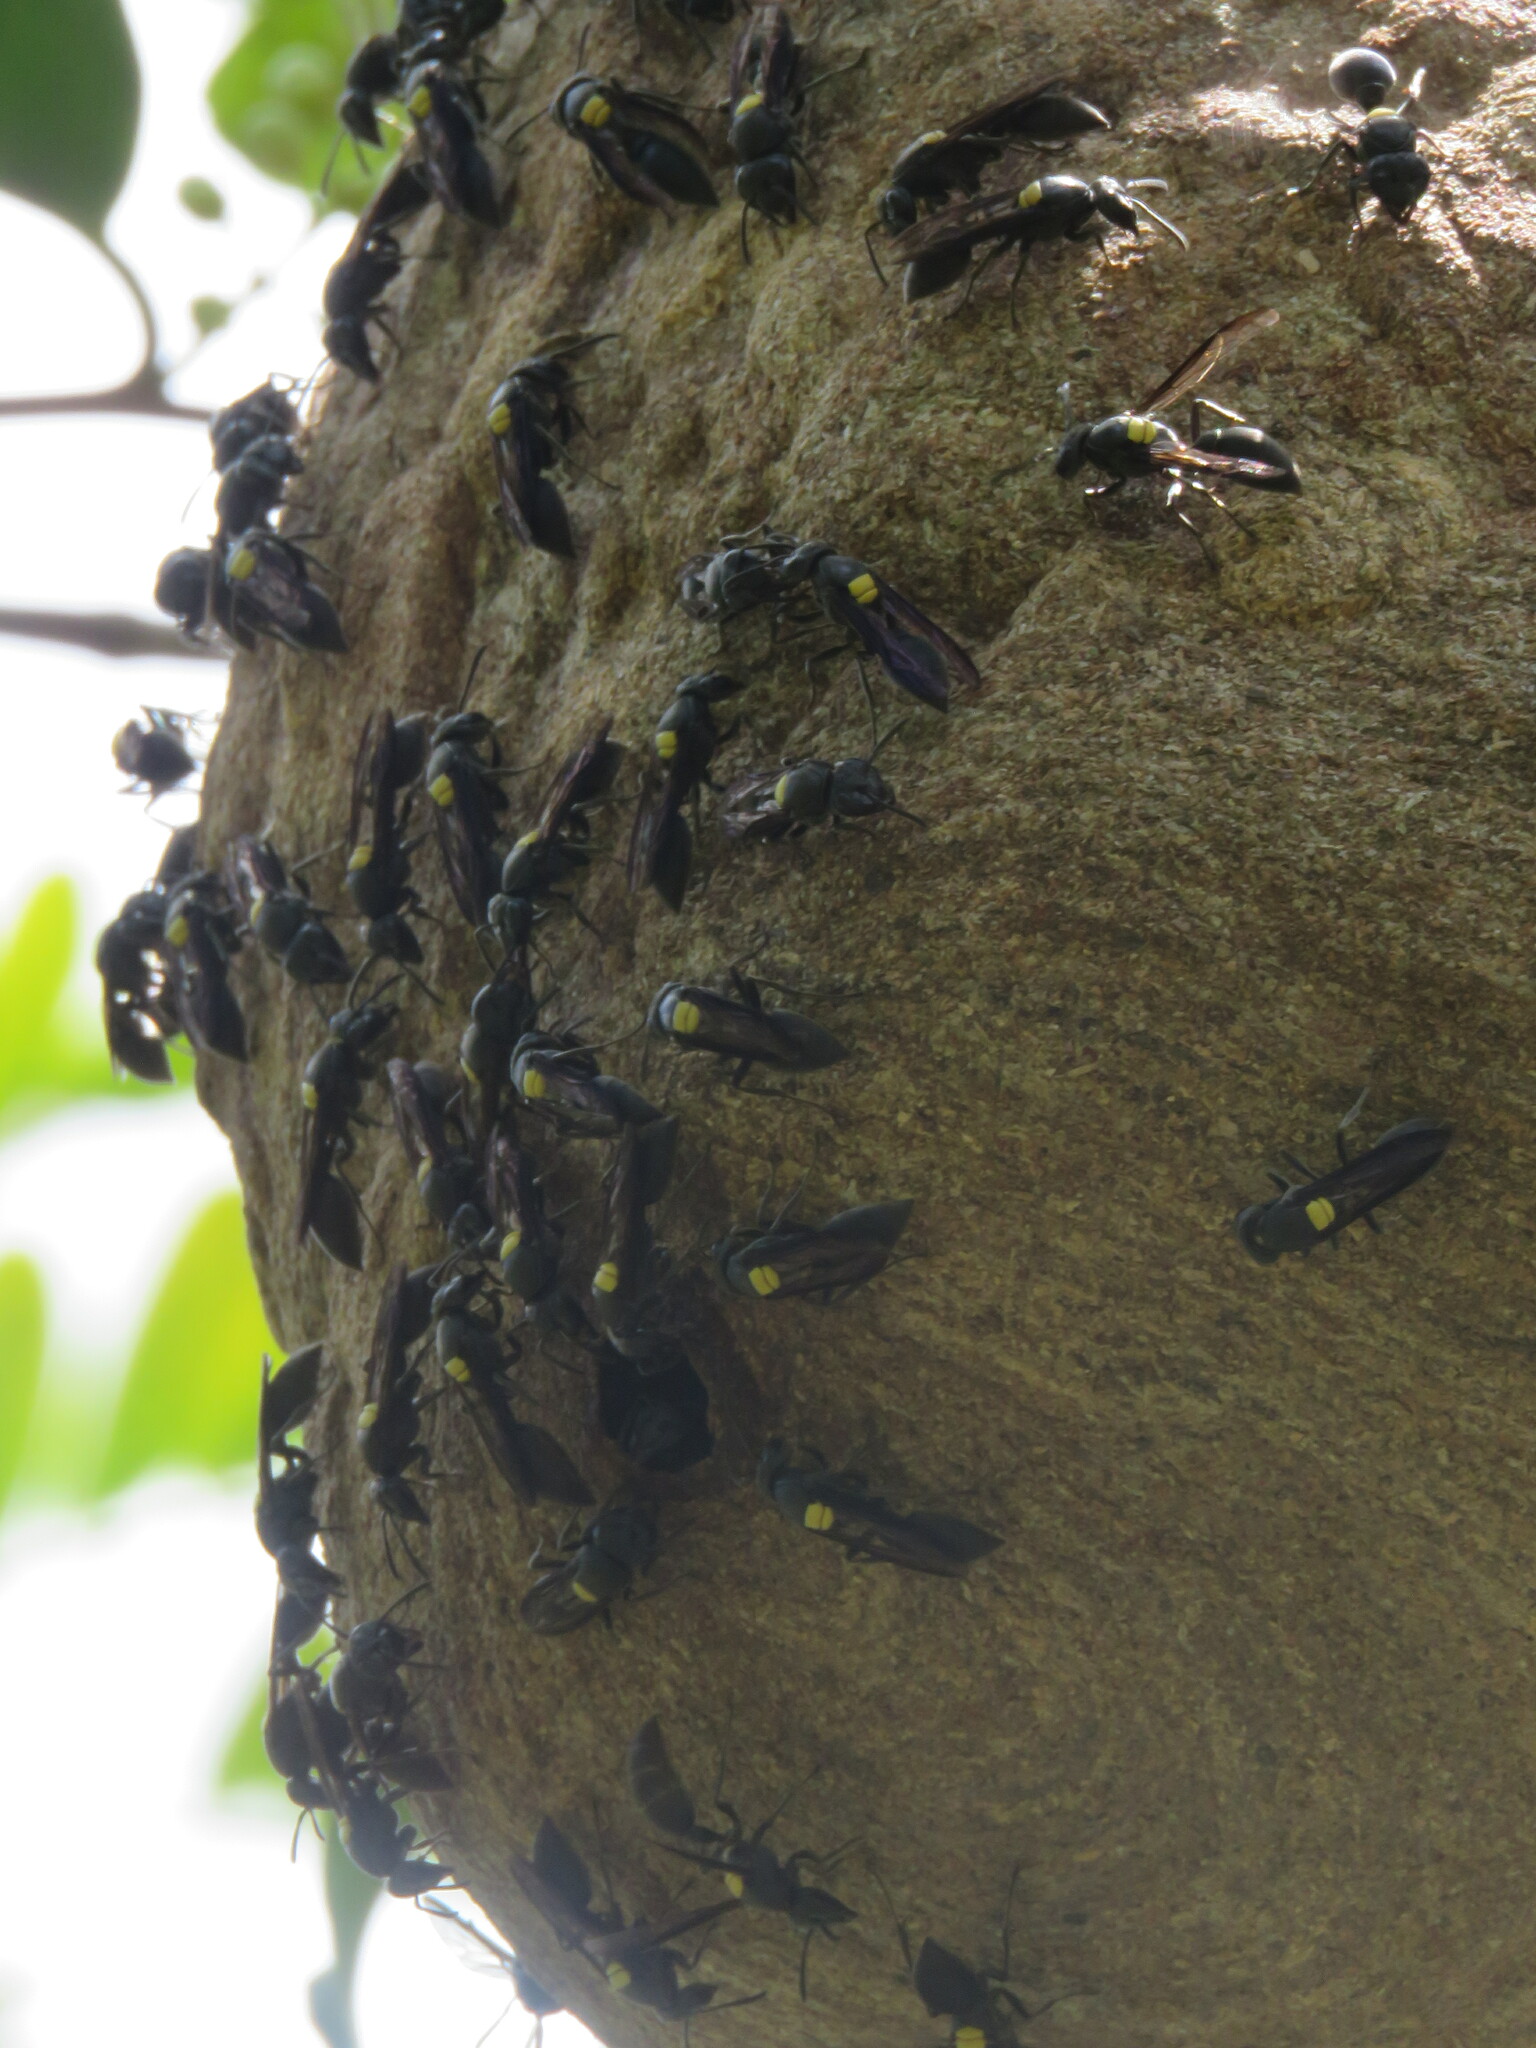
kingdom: Animalia
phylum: Arthropoda
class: Insecta
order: Hymenoptera
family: Eumenidae
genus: Polybia
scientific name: Polybia jurinei
